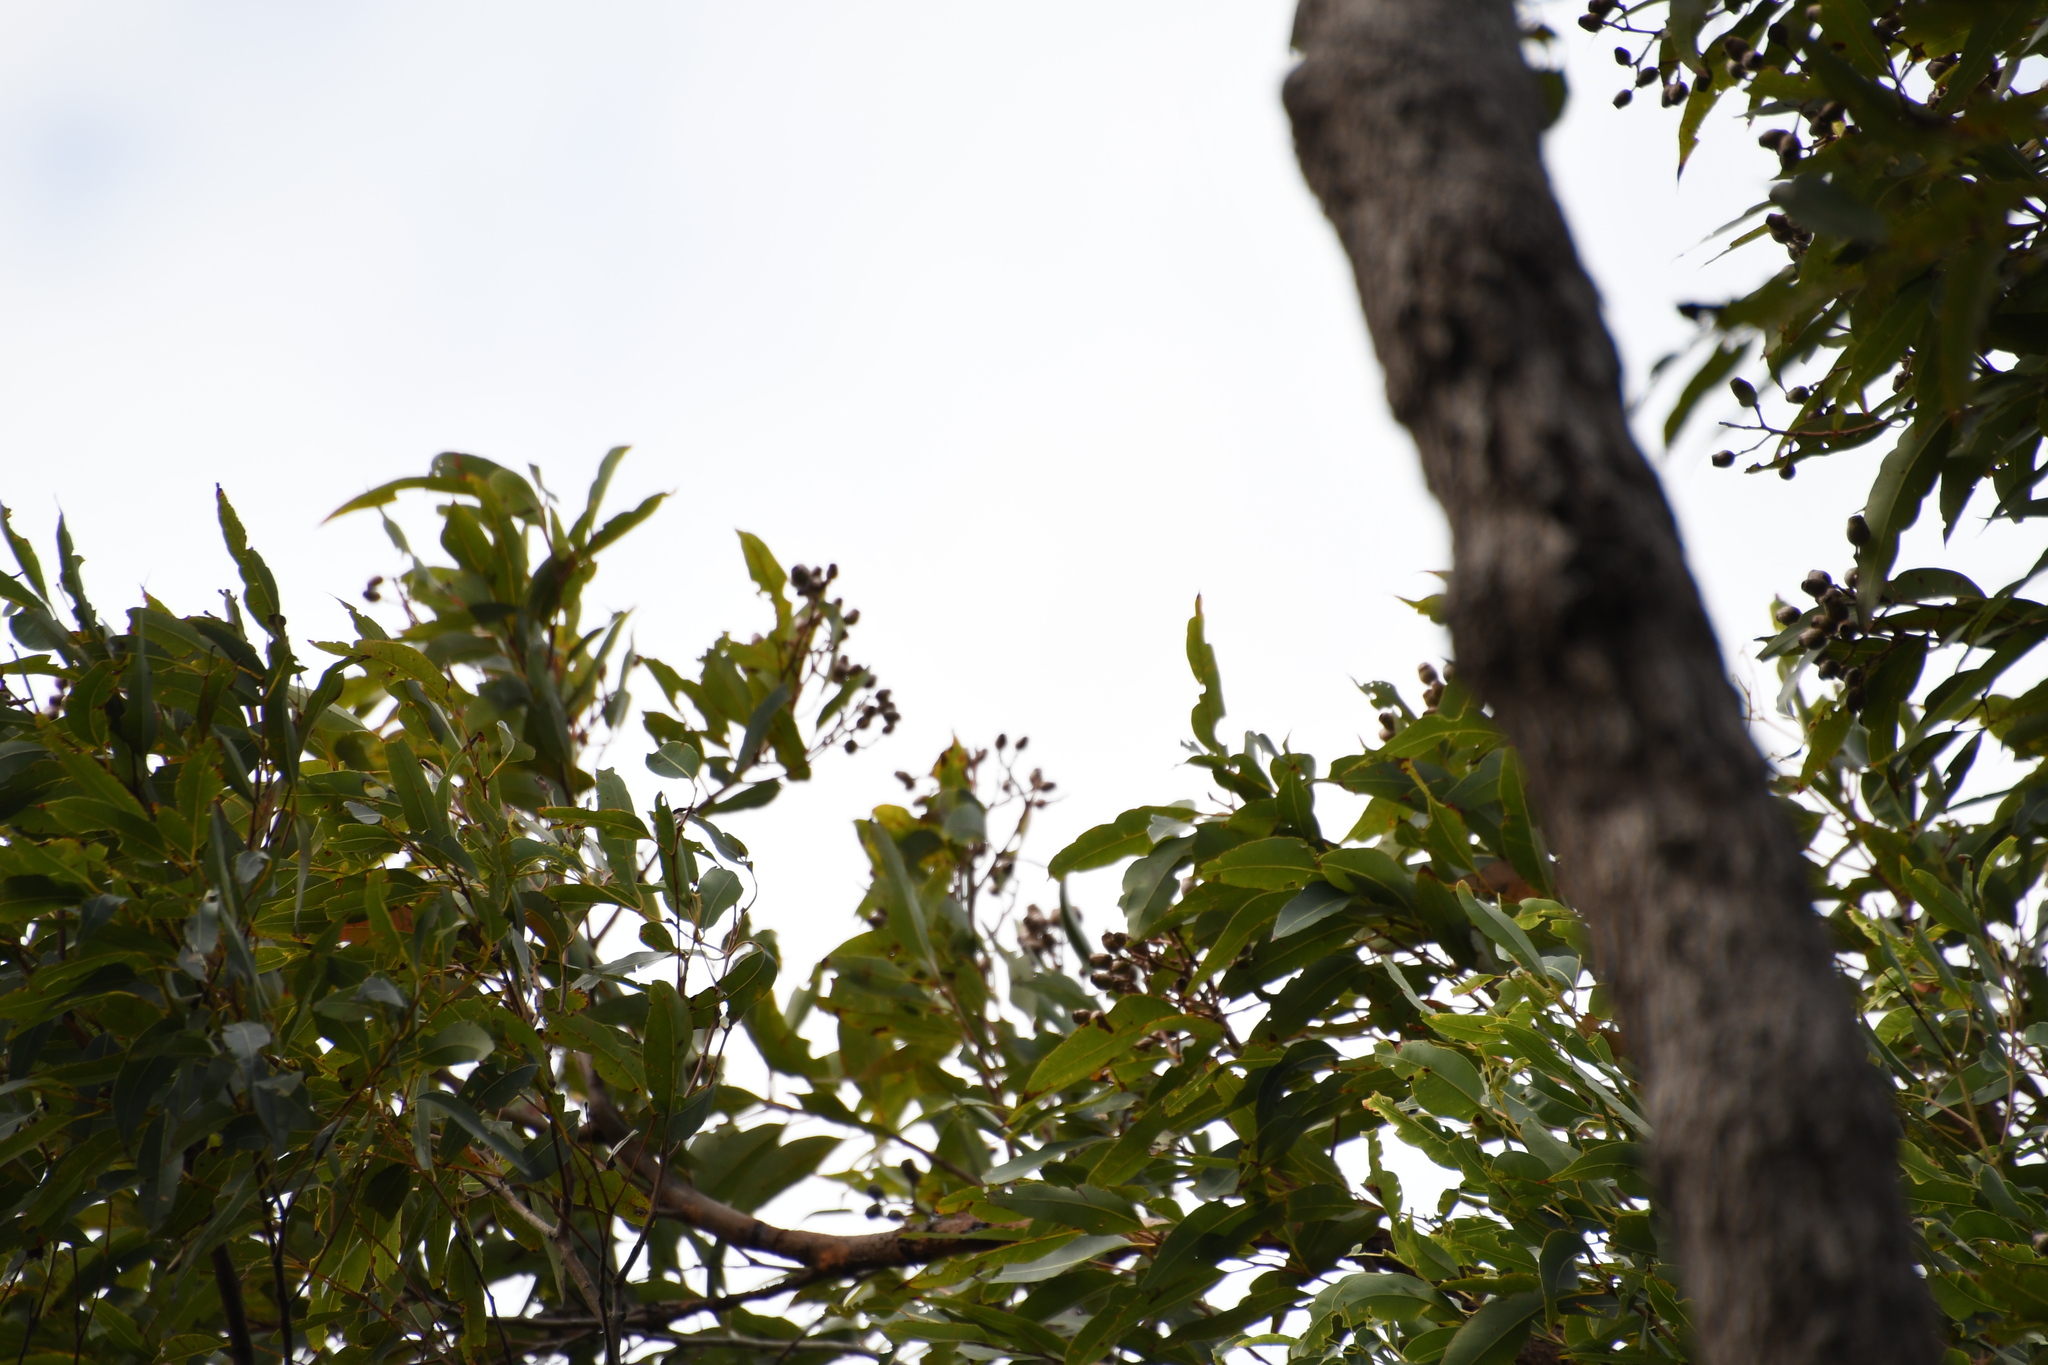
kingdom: Plantae
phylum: Tracheophyta
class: Magnoliopsida
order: Myrtales
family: Myrtaceae
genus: Corymbia
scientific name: Corymbia intermedia
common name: Pink-bloodwood
